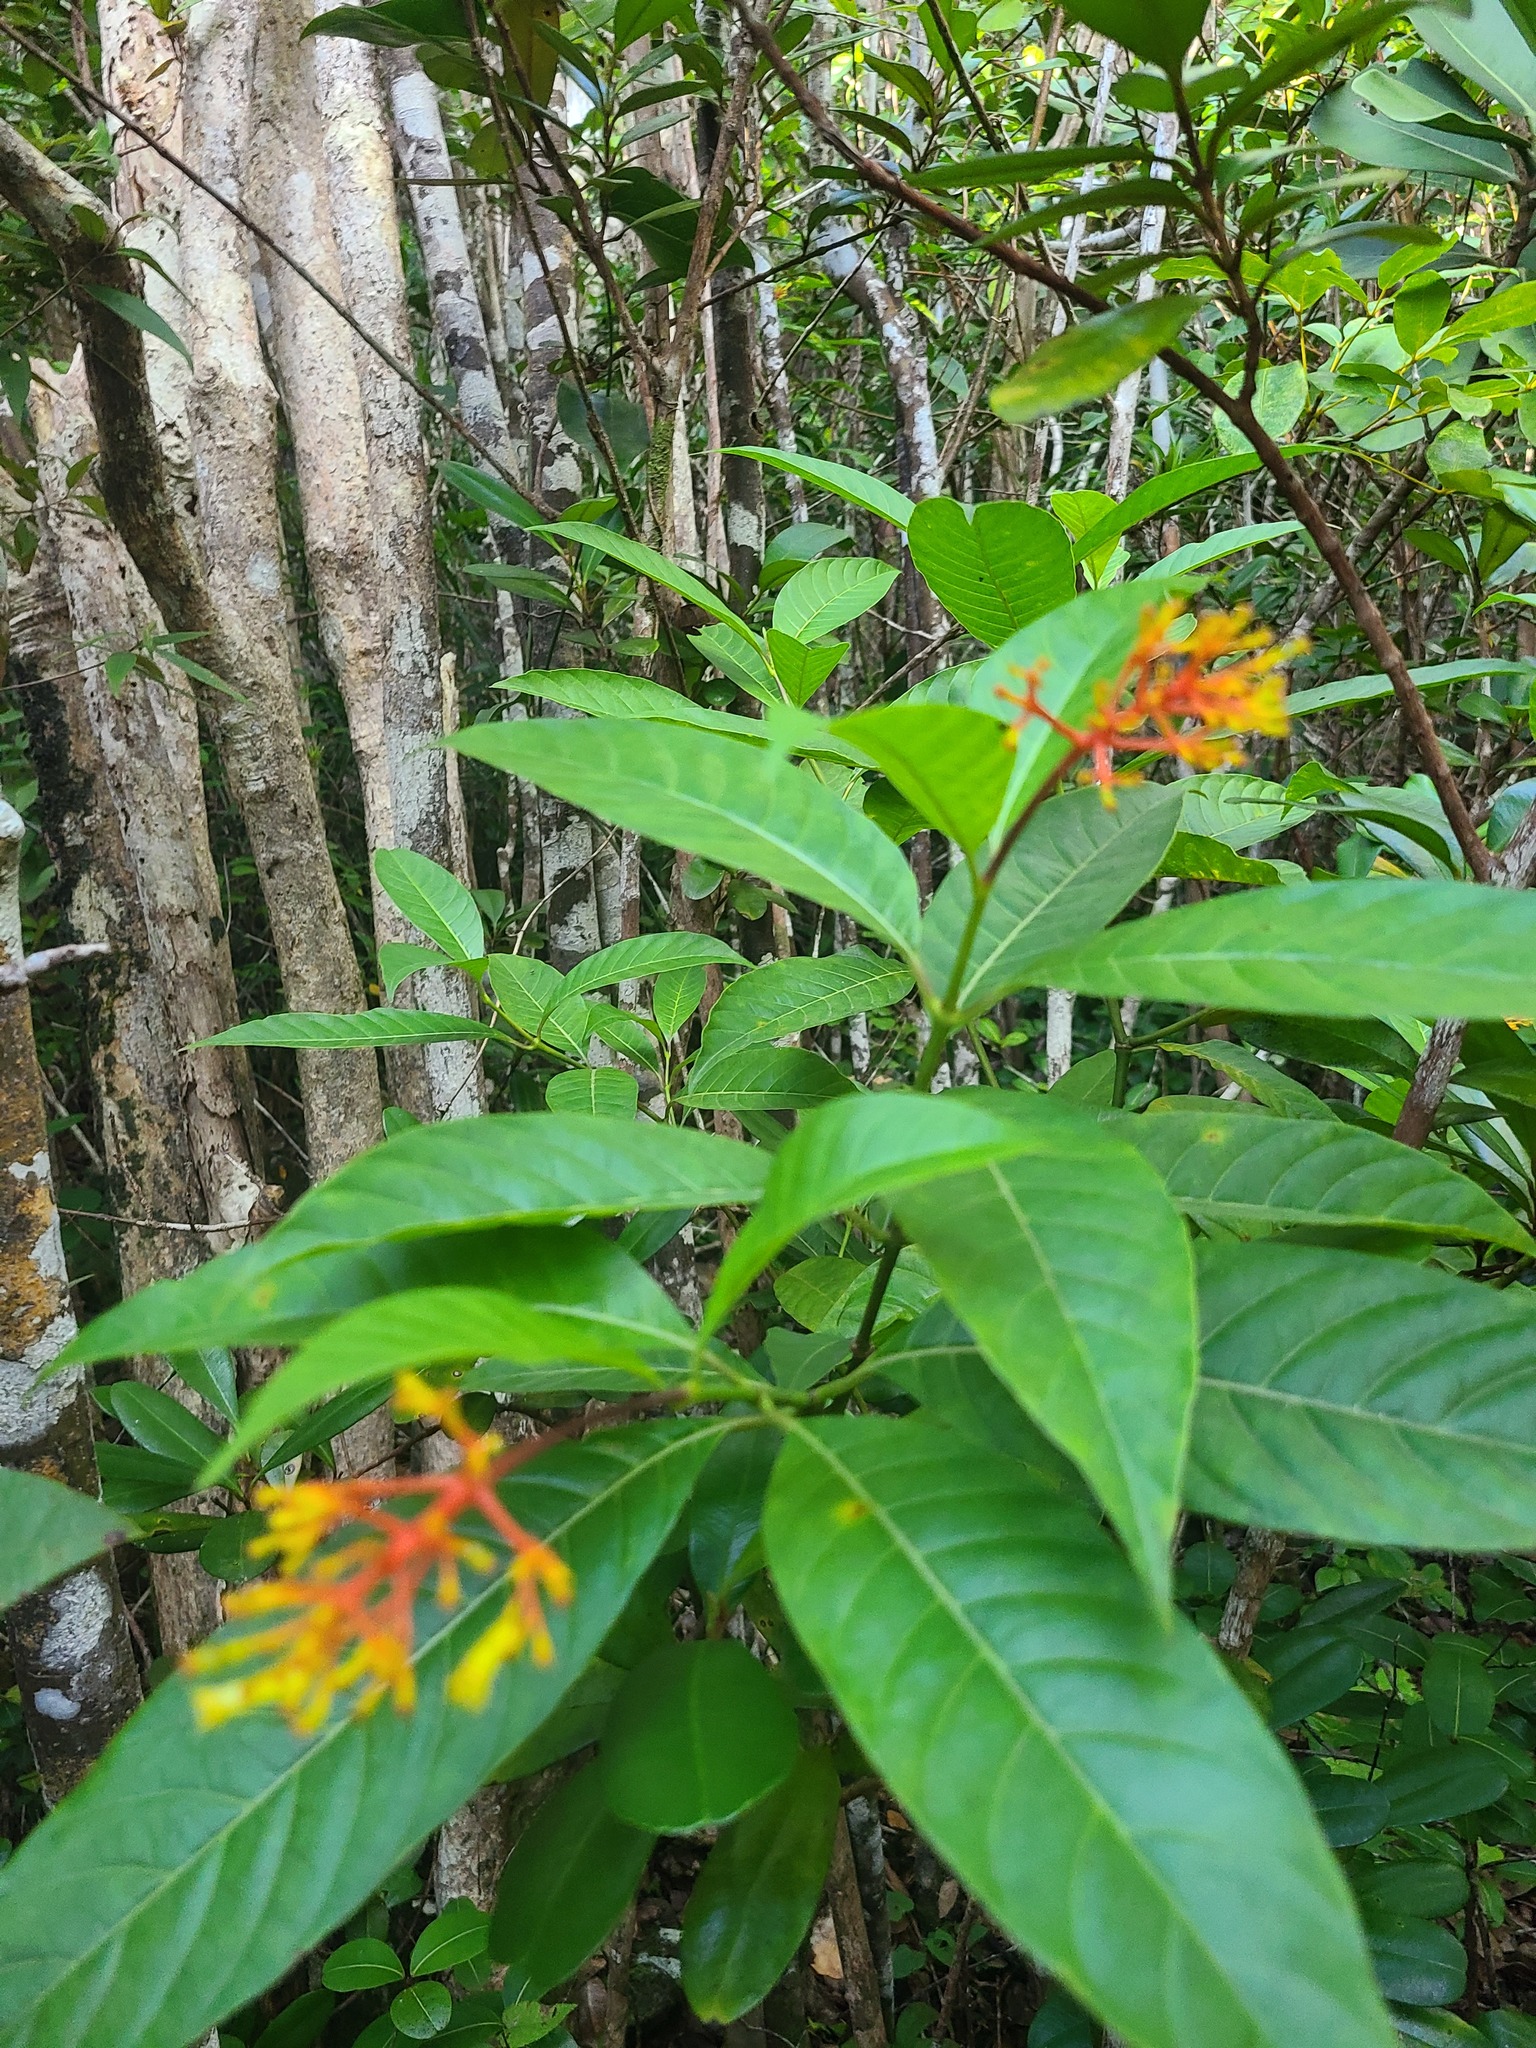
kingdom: Plantae
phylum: Tracheophyta
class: Magnoliopsida
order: Gentianales
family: Rubiaceae
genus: Palicourea
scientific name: Palicourea croceoides
